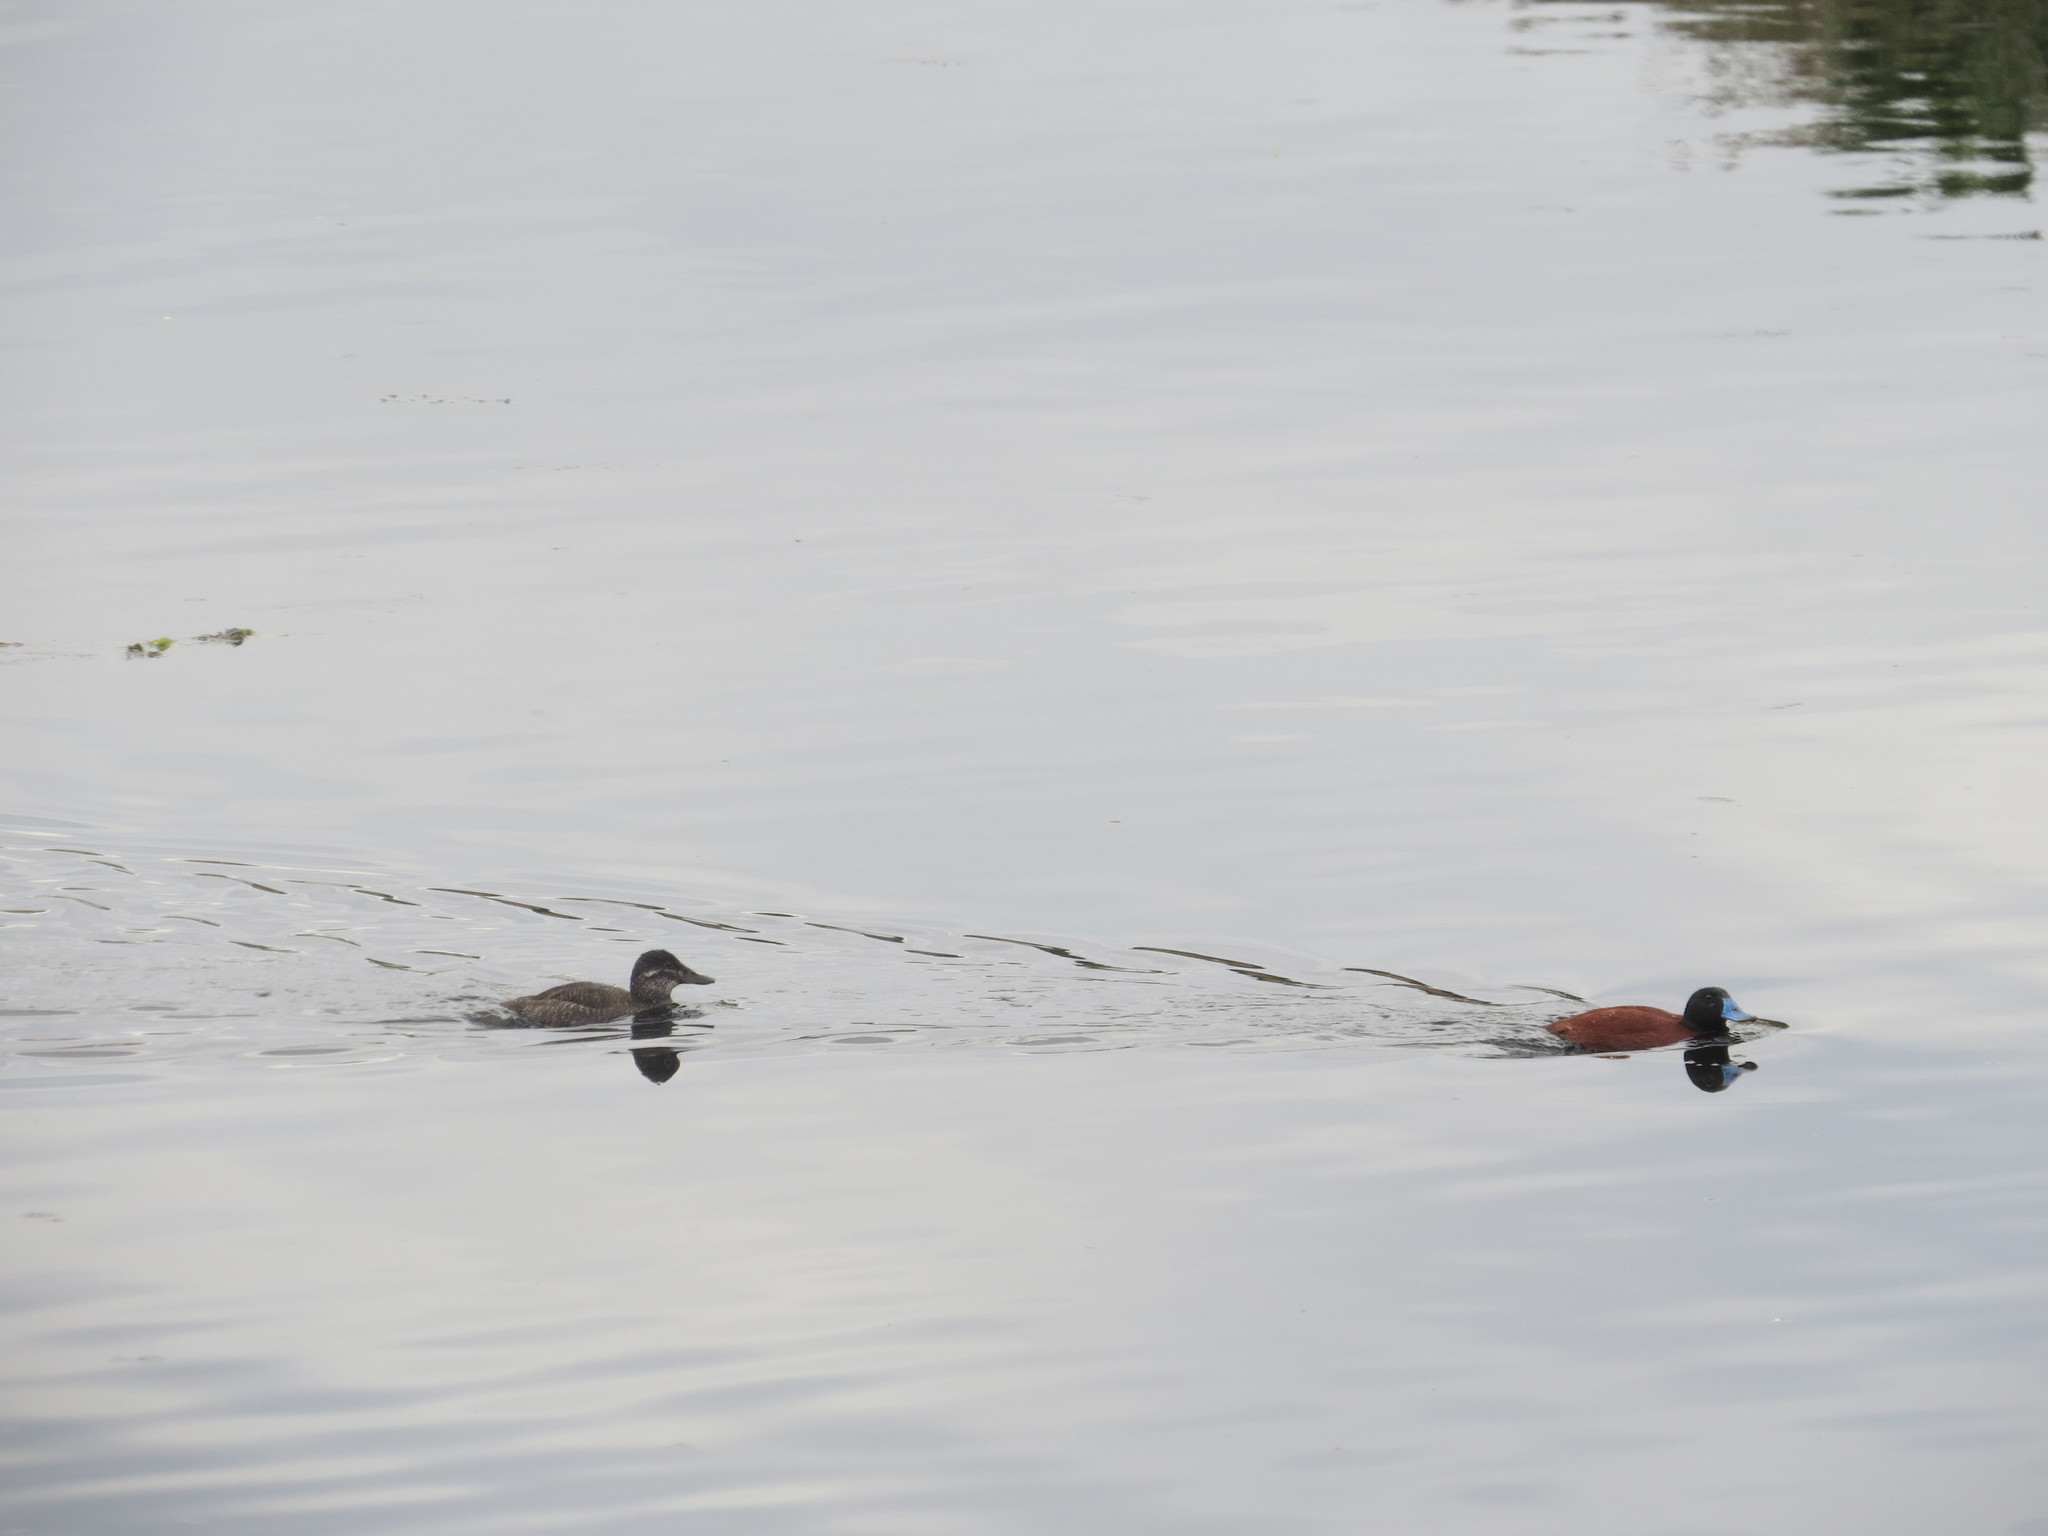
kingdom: Animalia
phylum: Chordata
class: Aves
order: Anseriformes
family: Anatidae
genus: Oxyura
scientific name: Oxyura vittata
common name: Lake duck
